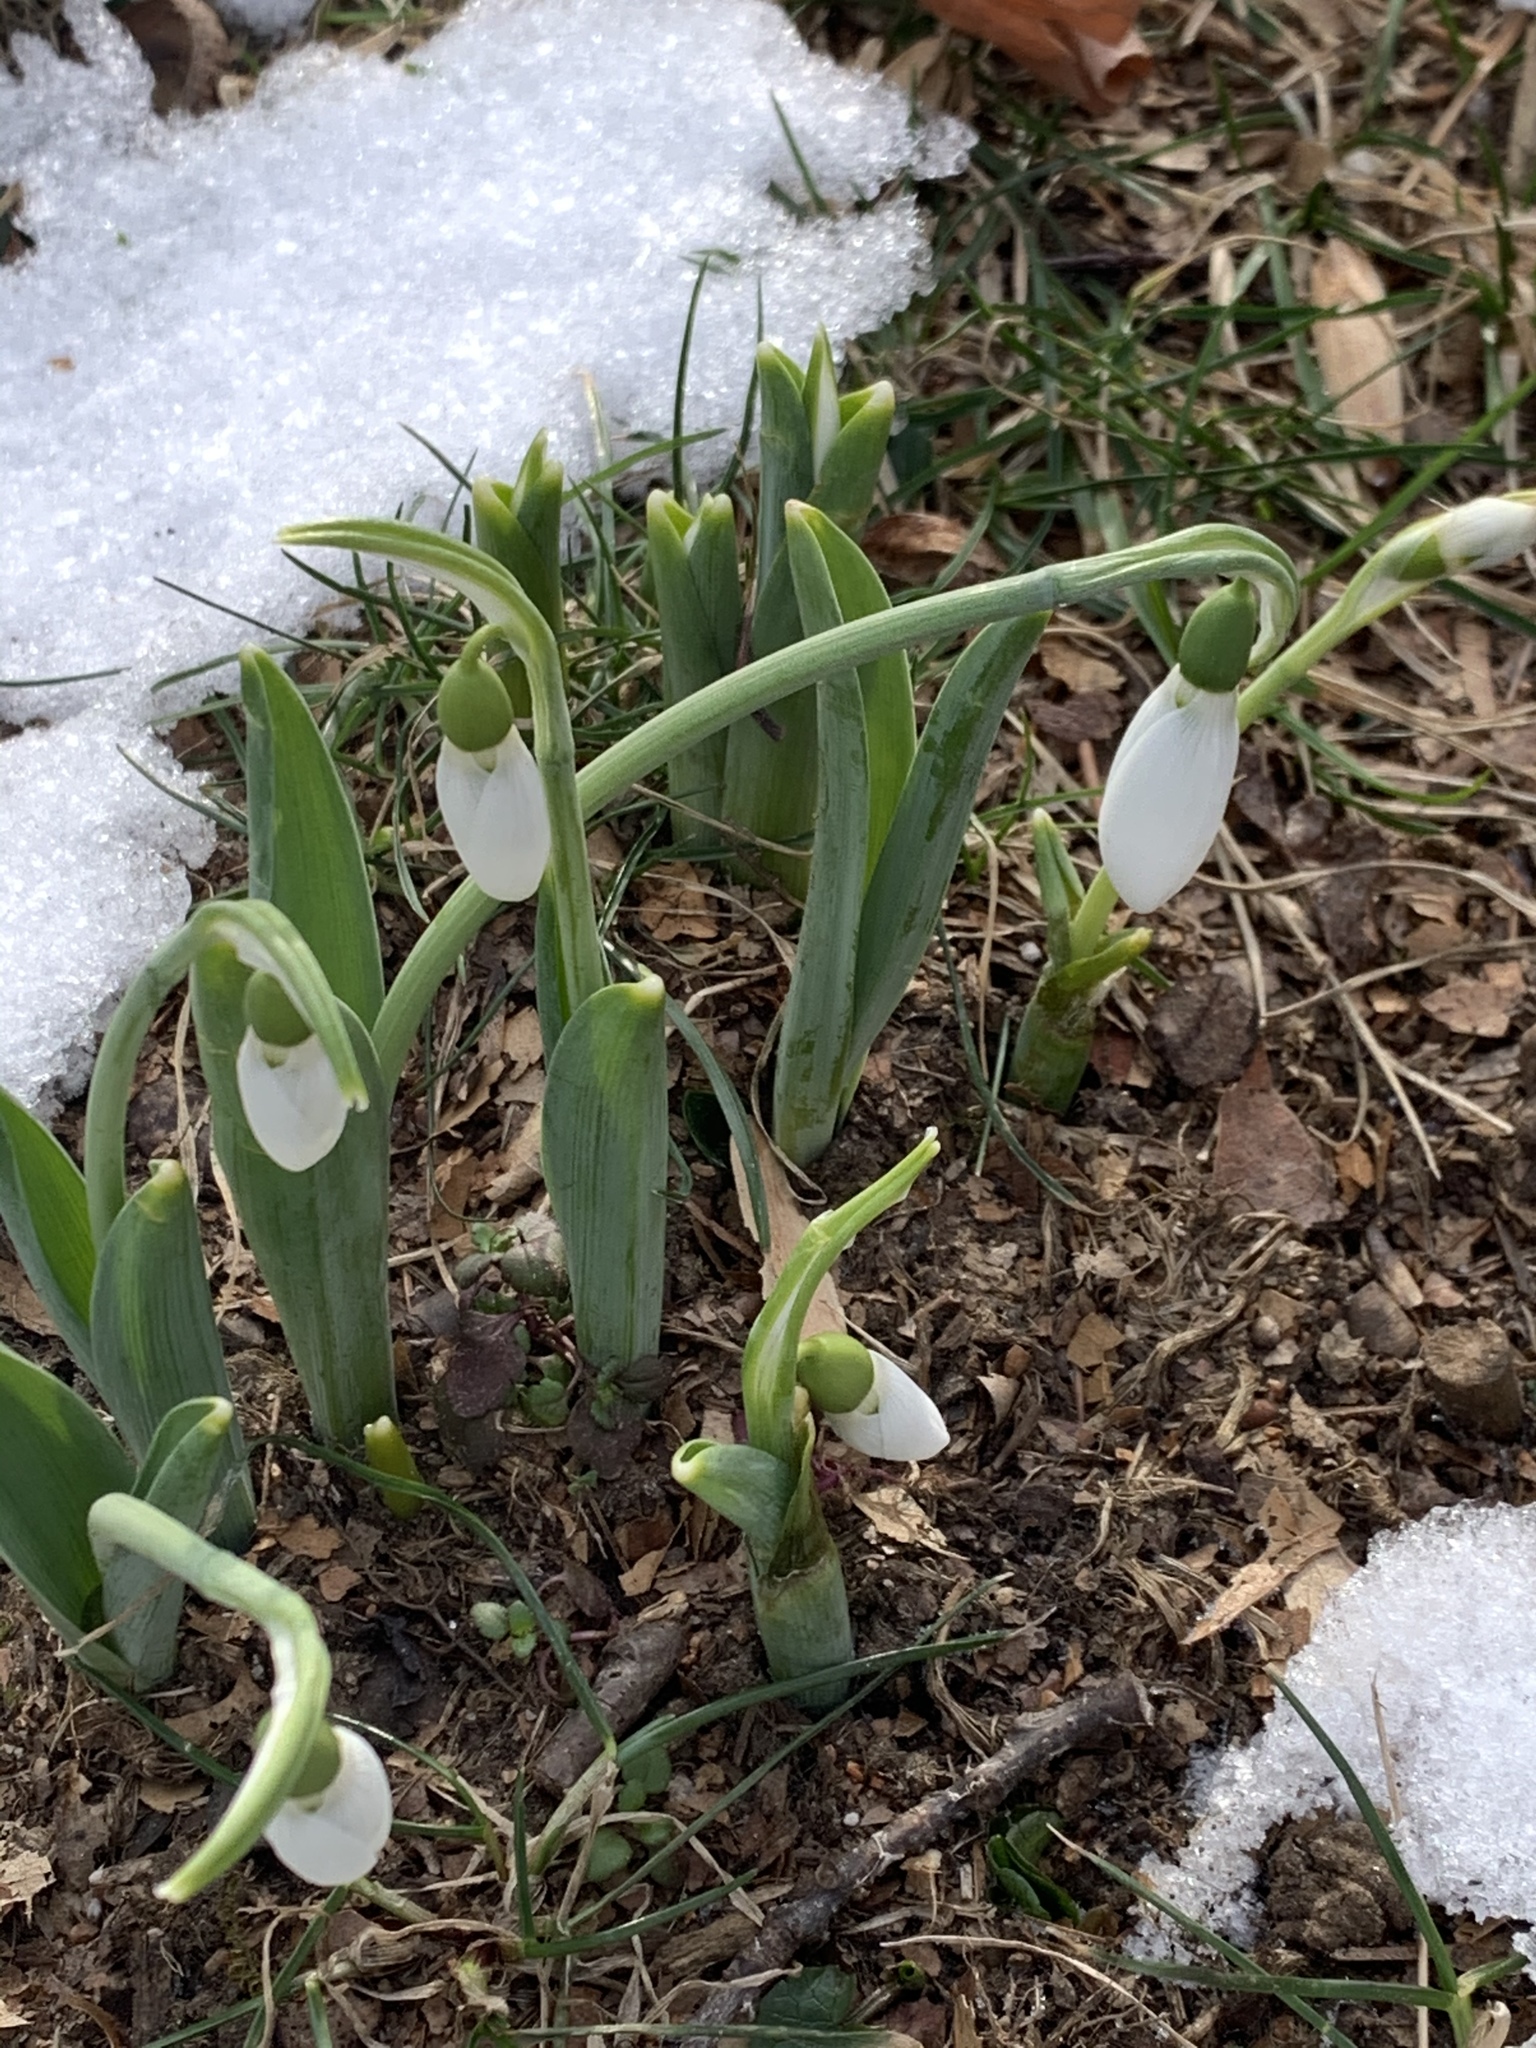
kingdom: Plantae
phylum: Tracheophyta
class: Liliopsida
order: Asparagales
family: Amaryllidaceae
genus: Galanthus
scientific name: Galanthus elwesii
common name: Greater snowdrop
